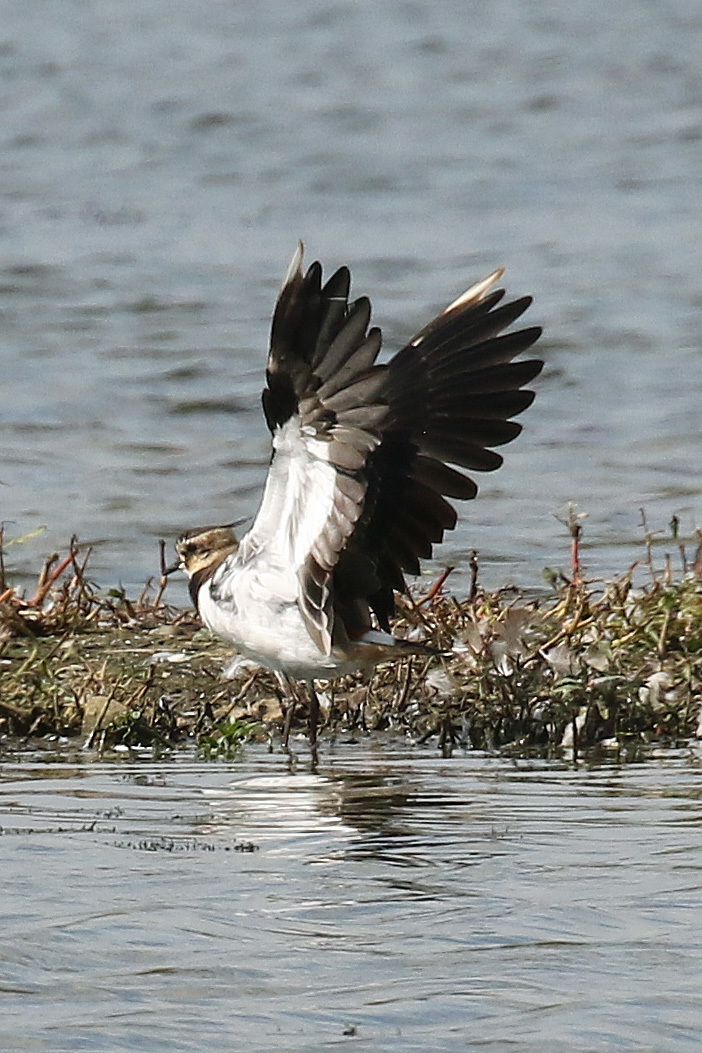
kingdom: Animalia
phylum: Chordata
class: Aves
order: Charadriiformes
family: Charadriidae
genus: Vanellus
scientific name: Vanellus vanellus
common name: Northern lapwing
